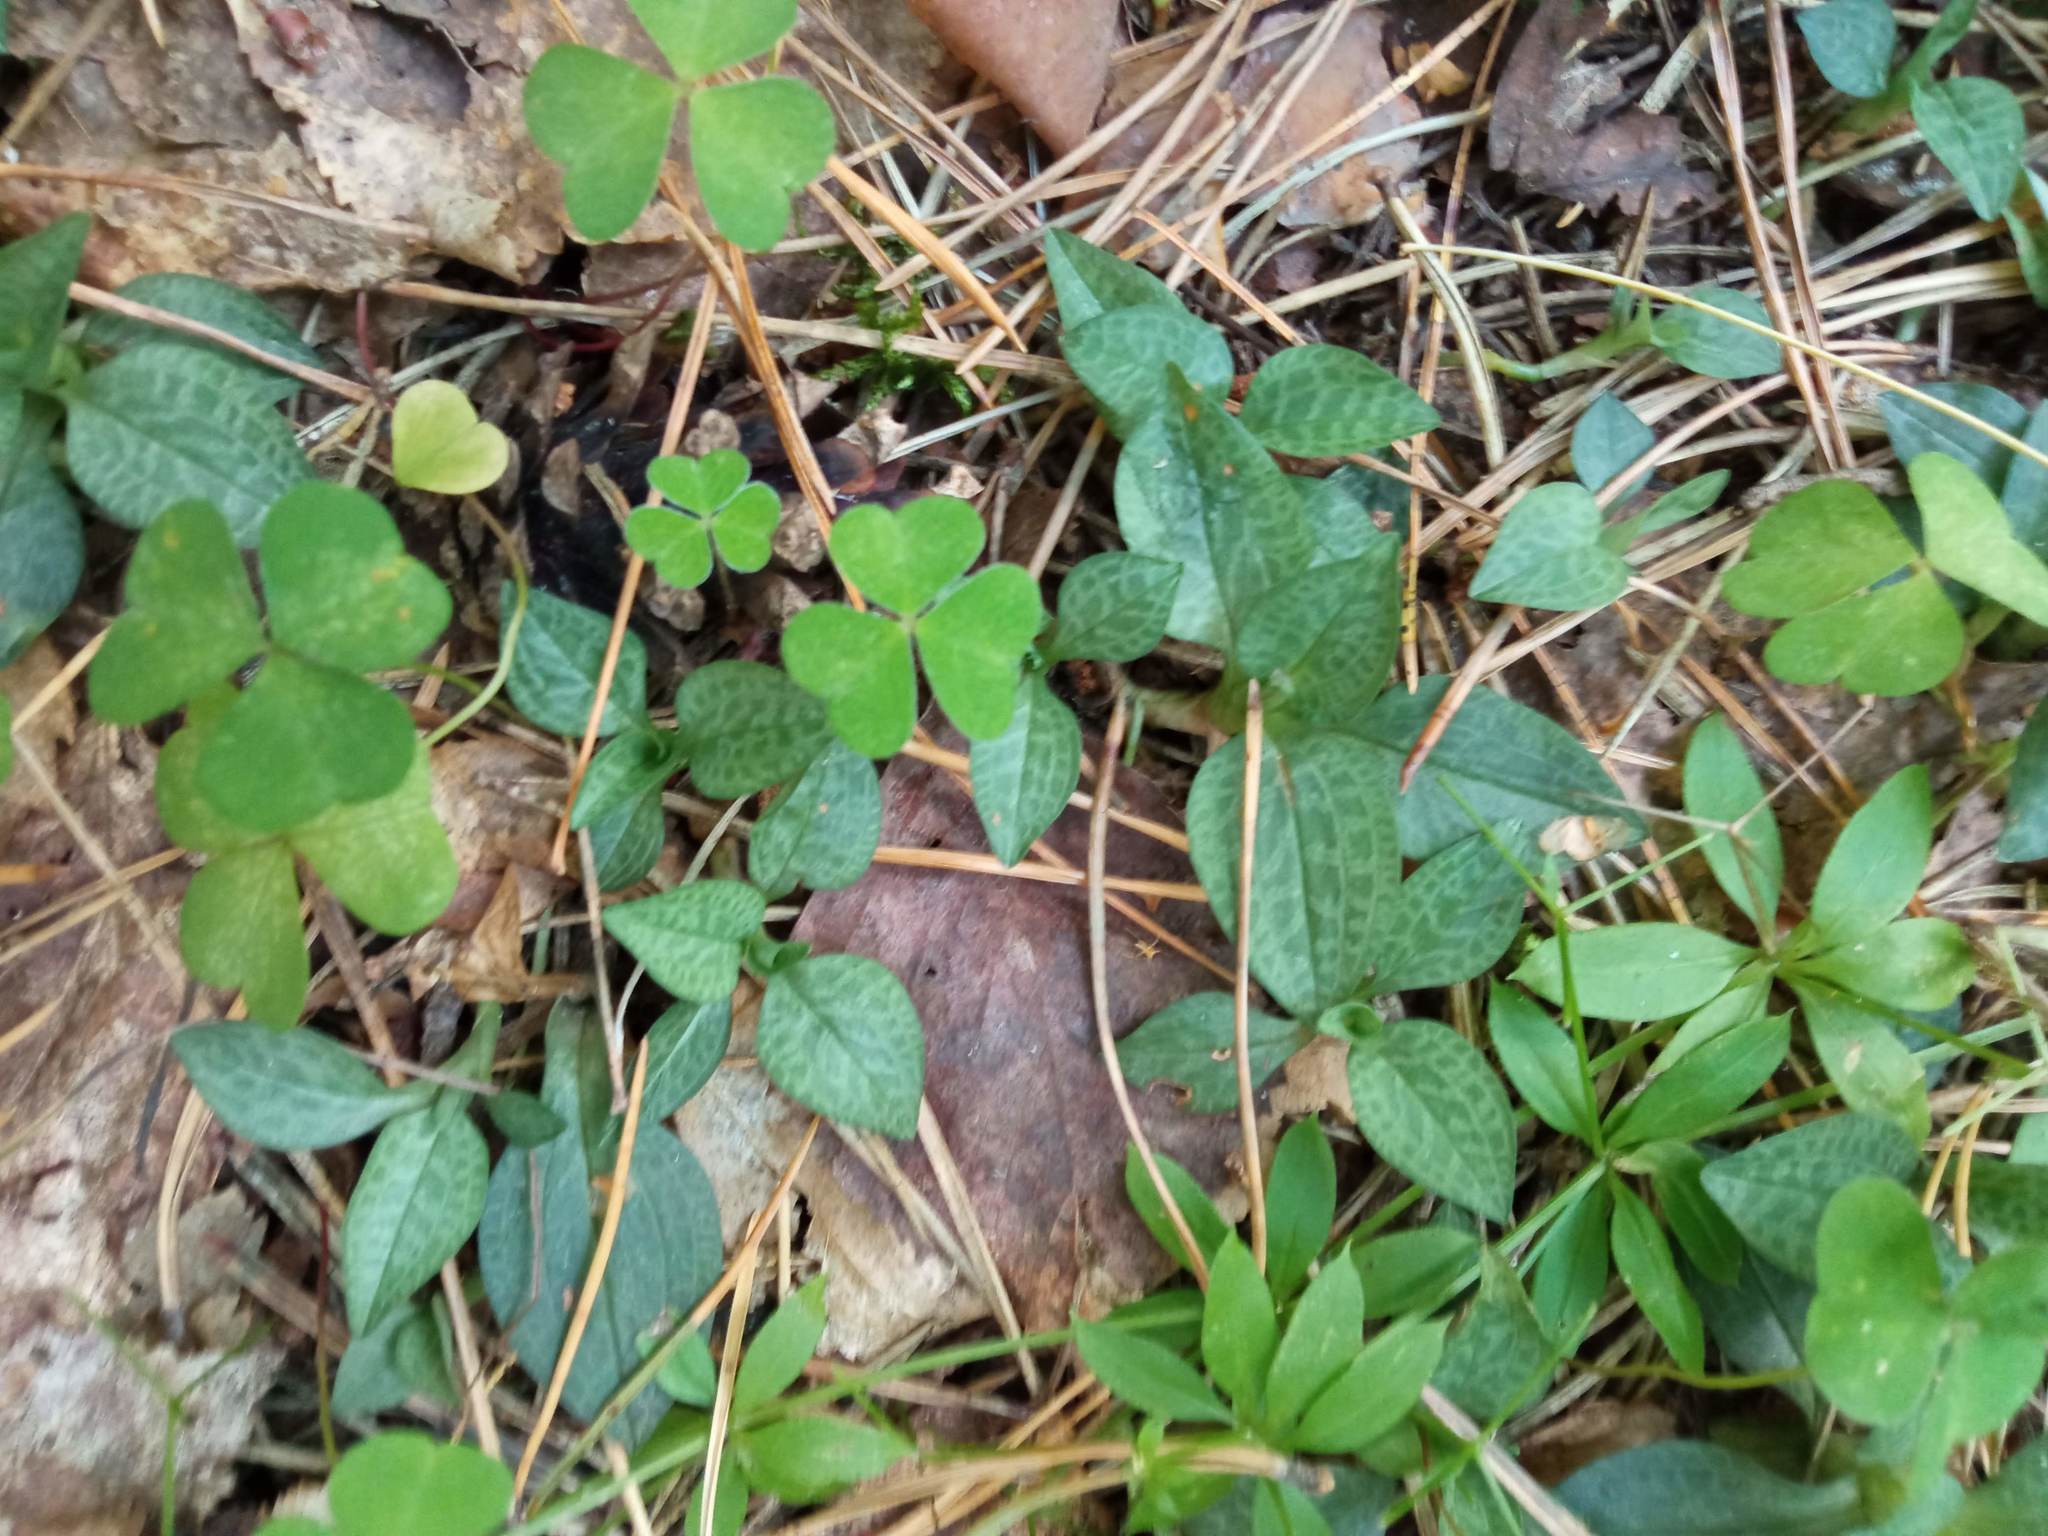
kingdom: Plantae
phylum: Tracheophyta
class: Liliopsida
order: Asparagales
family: Orchidaceae
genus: Goodyera
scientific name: Goodyera repens
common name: Creeping lady's-tresses
